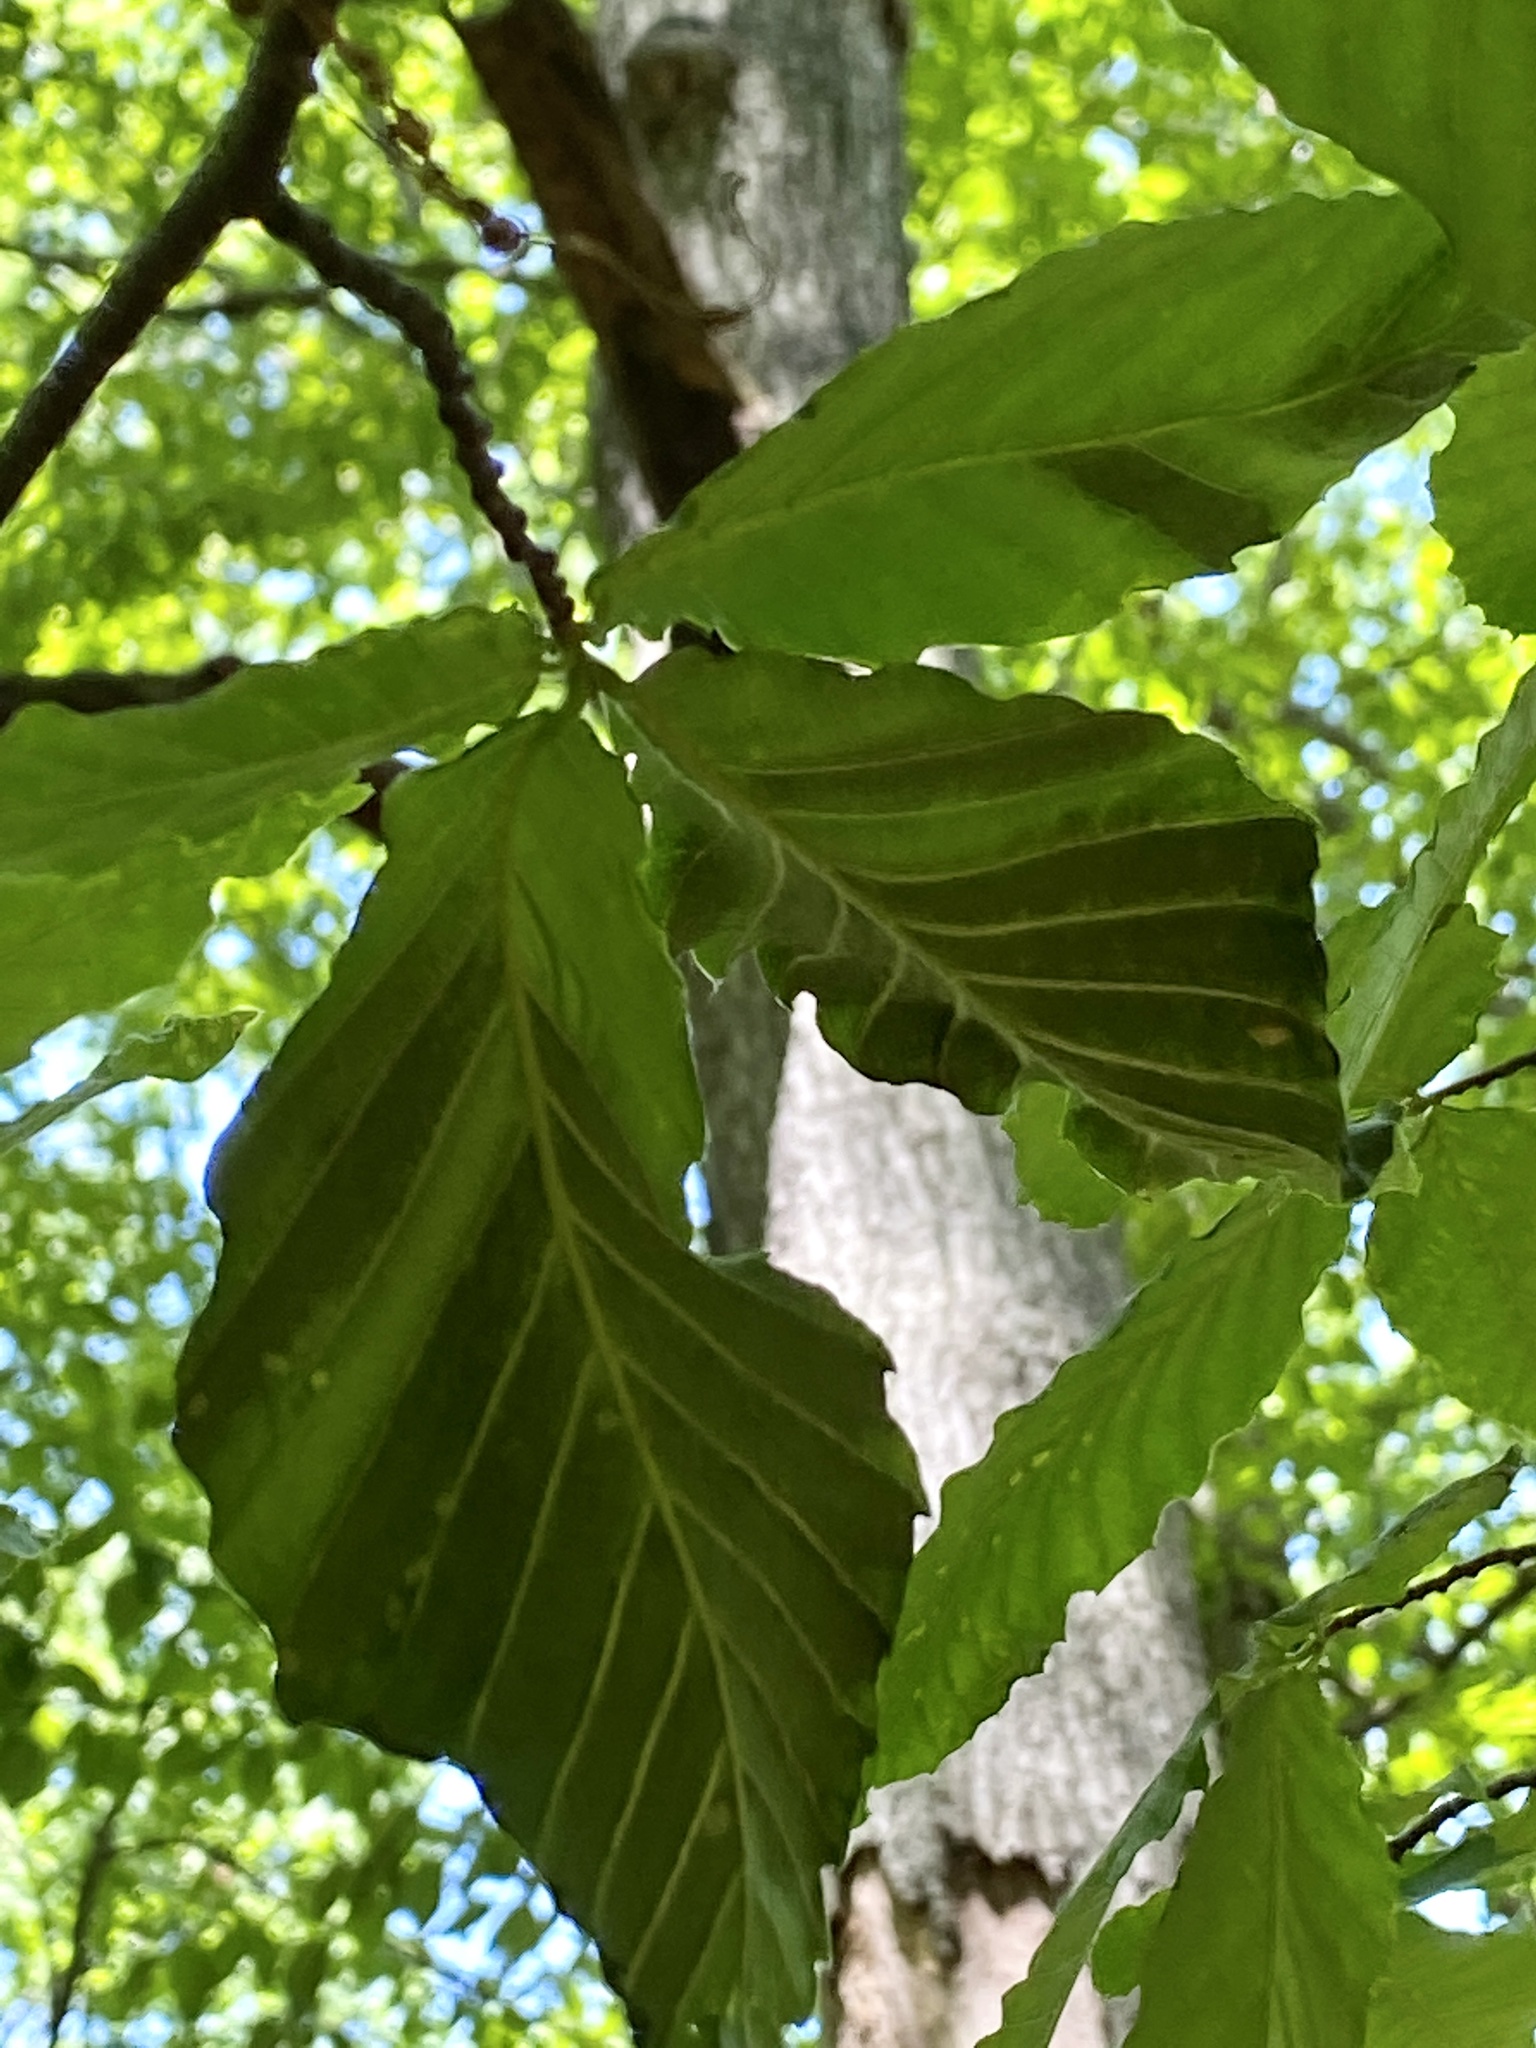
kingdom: Animalia
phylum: Nematoda
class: Chromadorea
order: Rhabditida
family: Anguinidae
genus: Litylenchus
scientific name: Litylenchus crenatae
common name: Beech leaf disease
